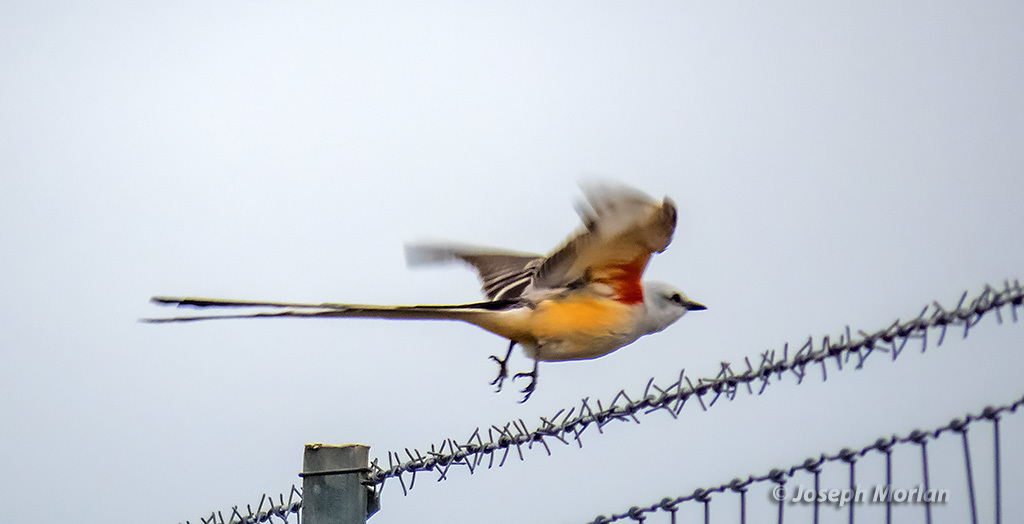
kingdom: Animalia
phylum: Chordata
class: Aves
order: Passeriformes
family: Tyrannidae
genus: Tyrannus
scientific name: Tyrannus forficatus
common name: Scissor-tailed flycatcher
